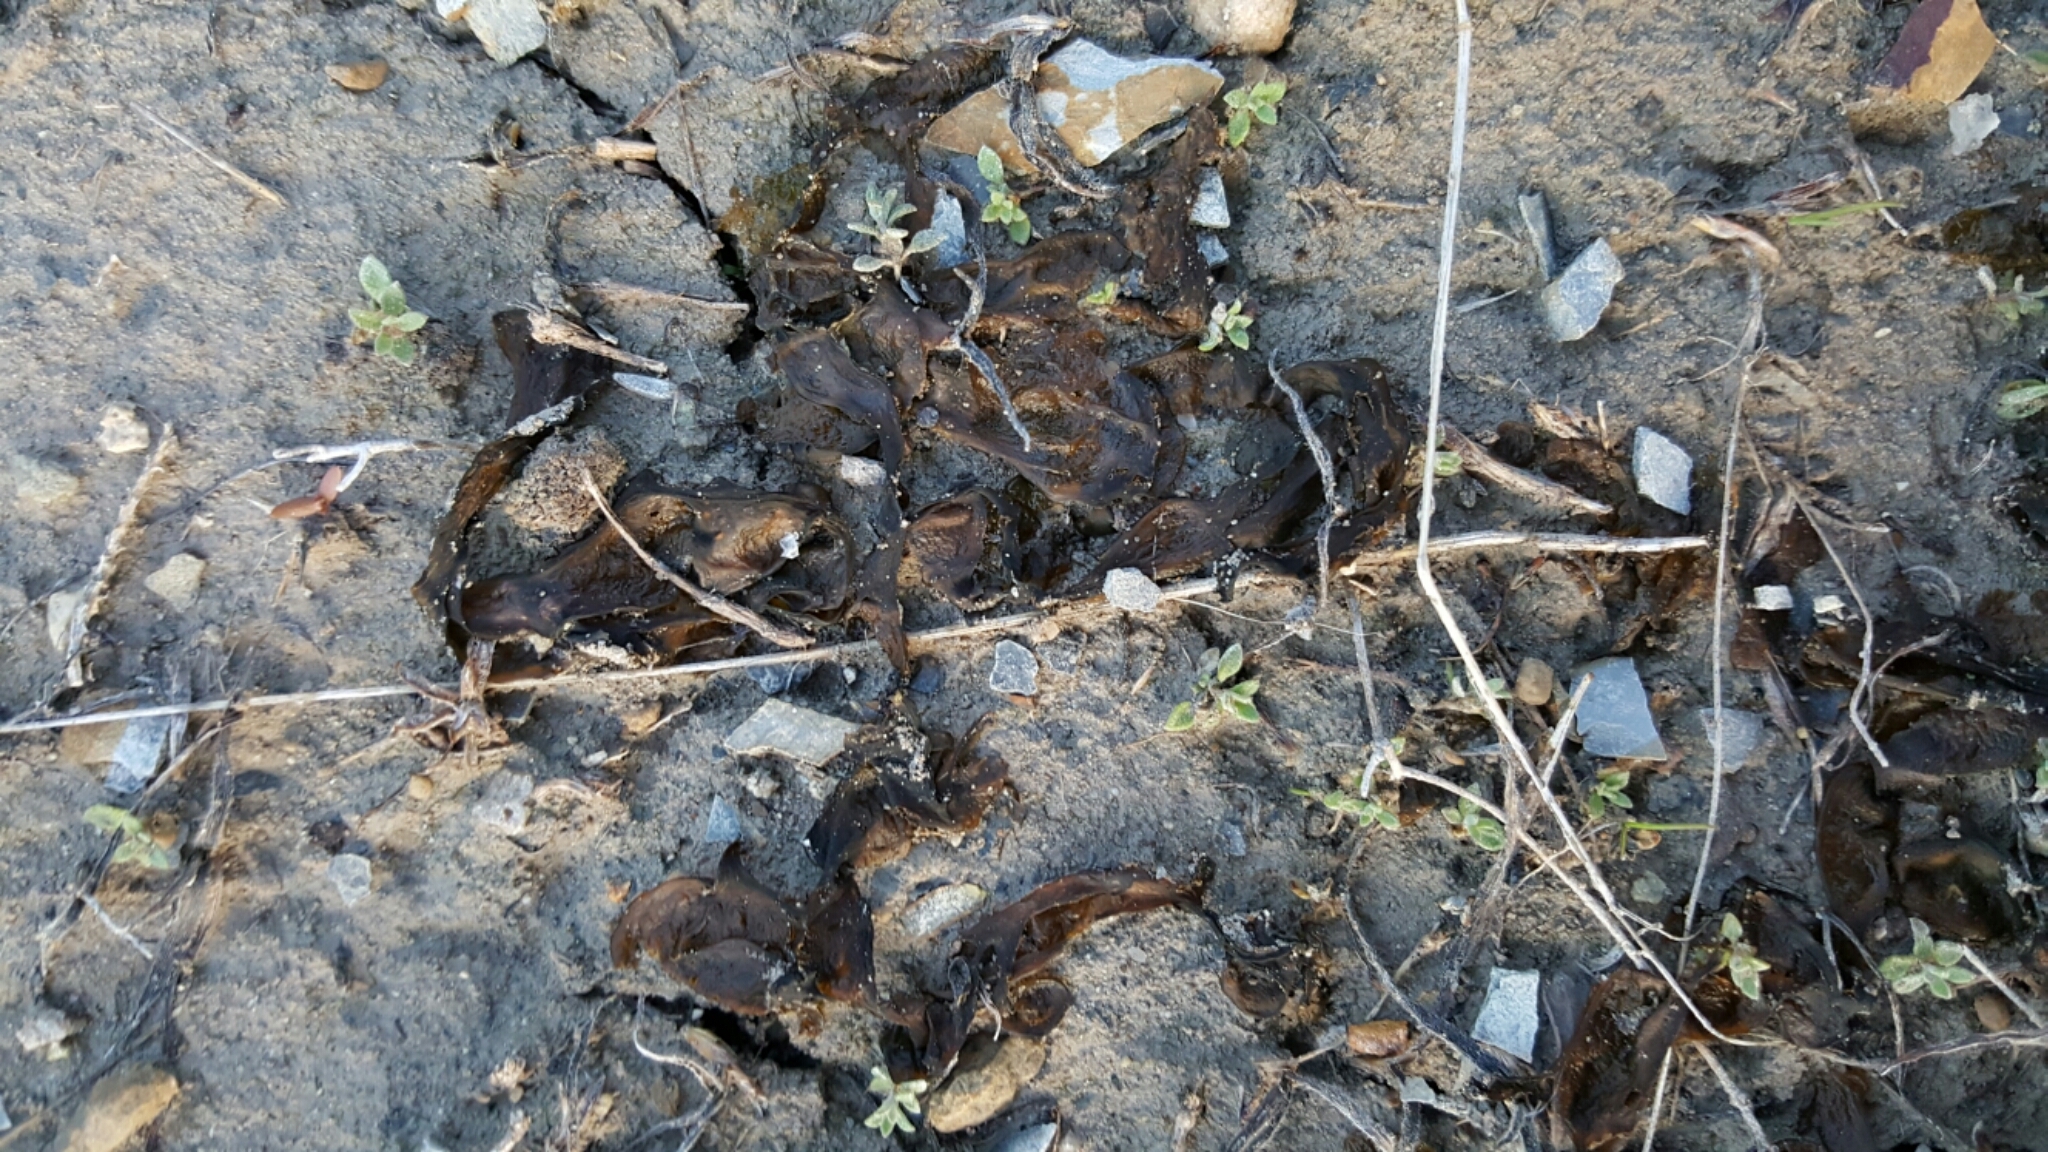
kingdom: Bacteria
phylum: Cyanobacteria
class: Cyanobacteriia
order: Cyanobacteriales
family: Nostocaceae
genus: Nostoc
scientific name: Nostoc commune
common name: Star jelly
